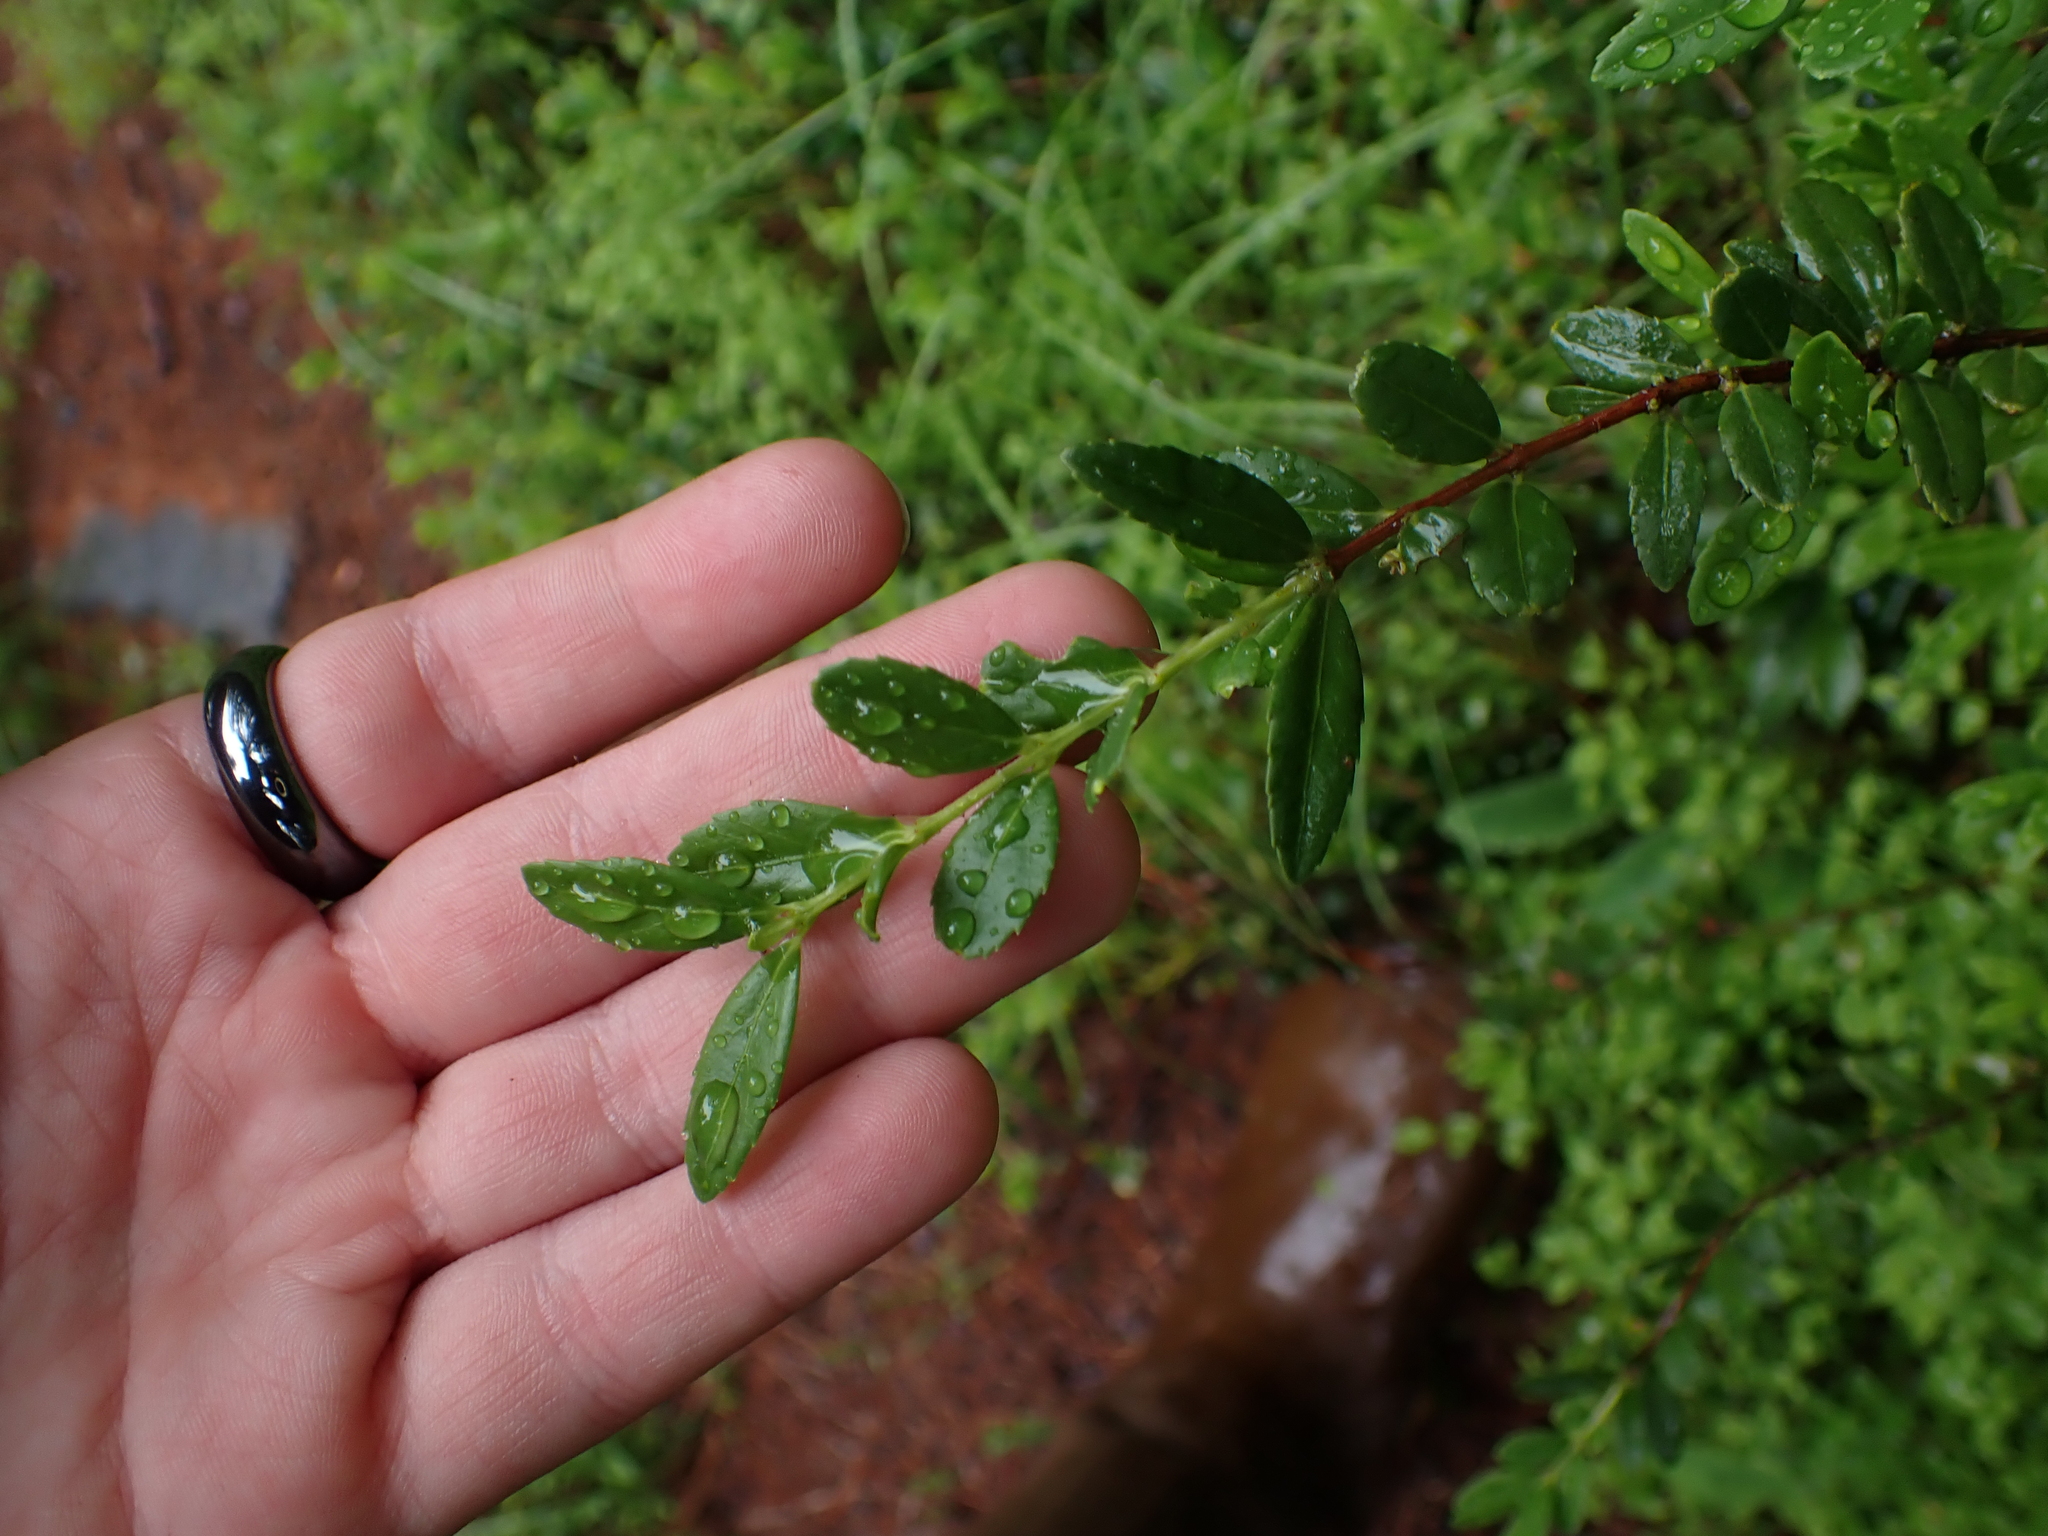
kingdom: Plantae
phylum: Tracheophyta
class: Magnoliopsida
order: Celastrales
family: Celastraceae
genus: Paxistima
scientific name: Paxistima myrsinites
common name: Mountain-lover
